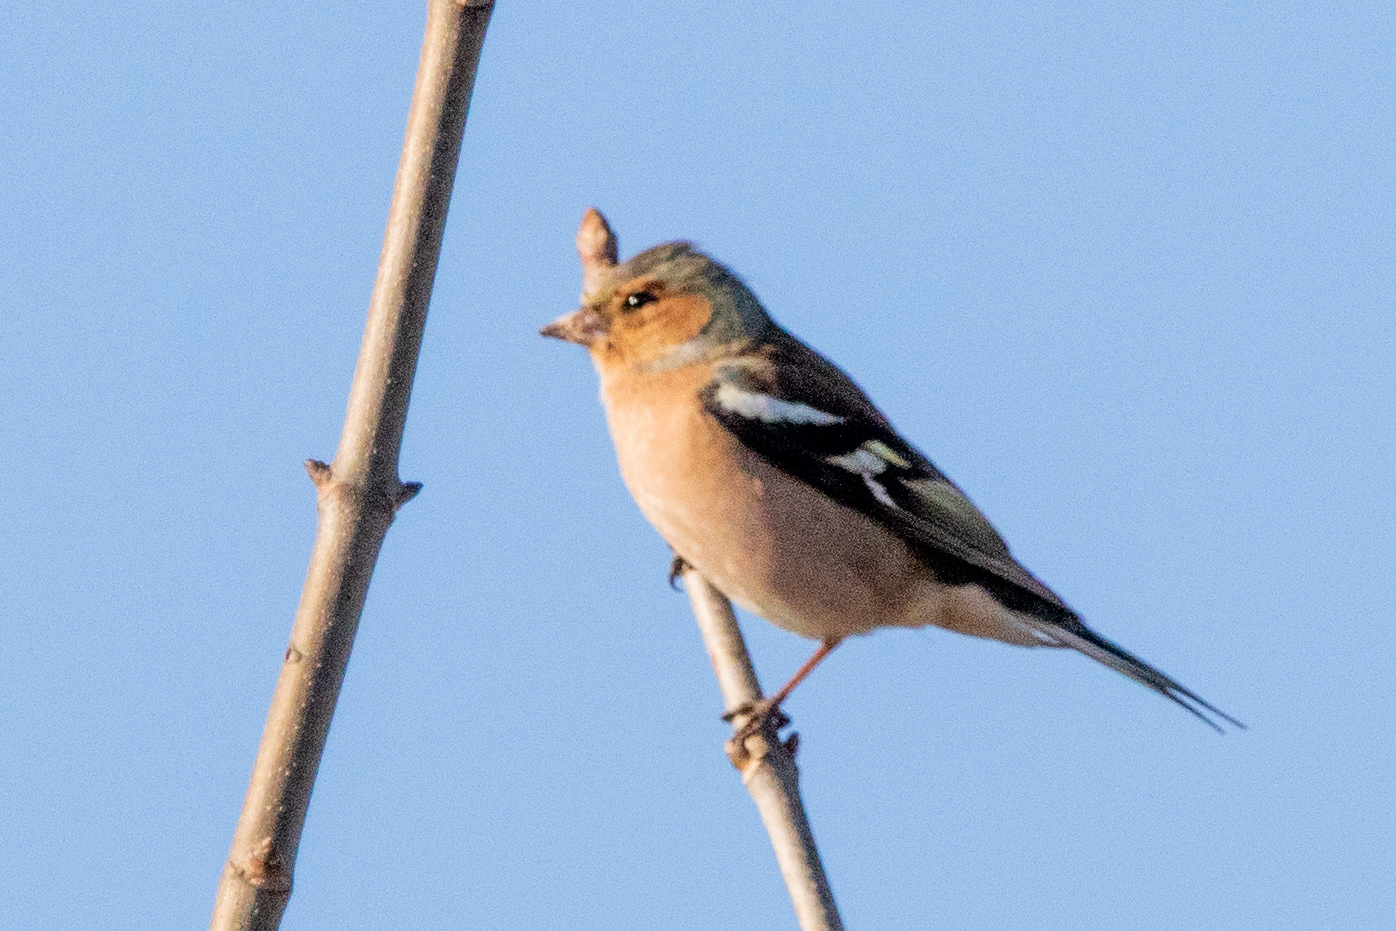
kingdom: Animalia
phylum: Chordata
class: Aves
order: Passeriformes
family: Fringillidae
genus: Fringilla
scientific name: Fringilla coelebs
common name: Common chaffinch
